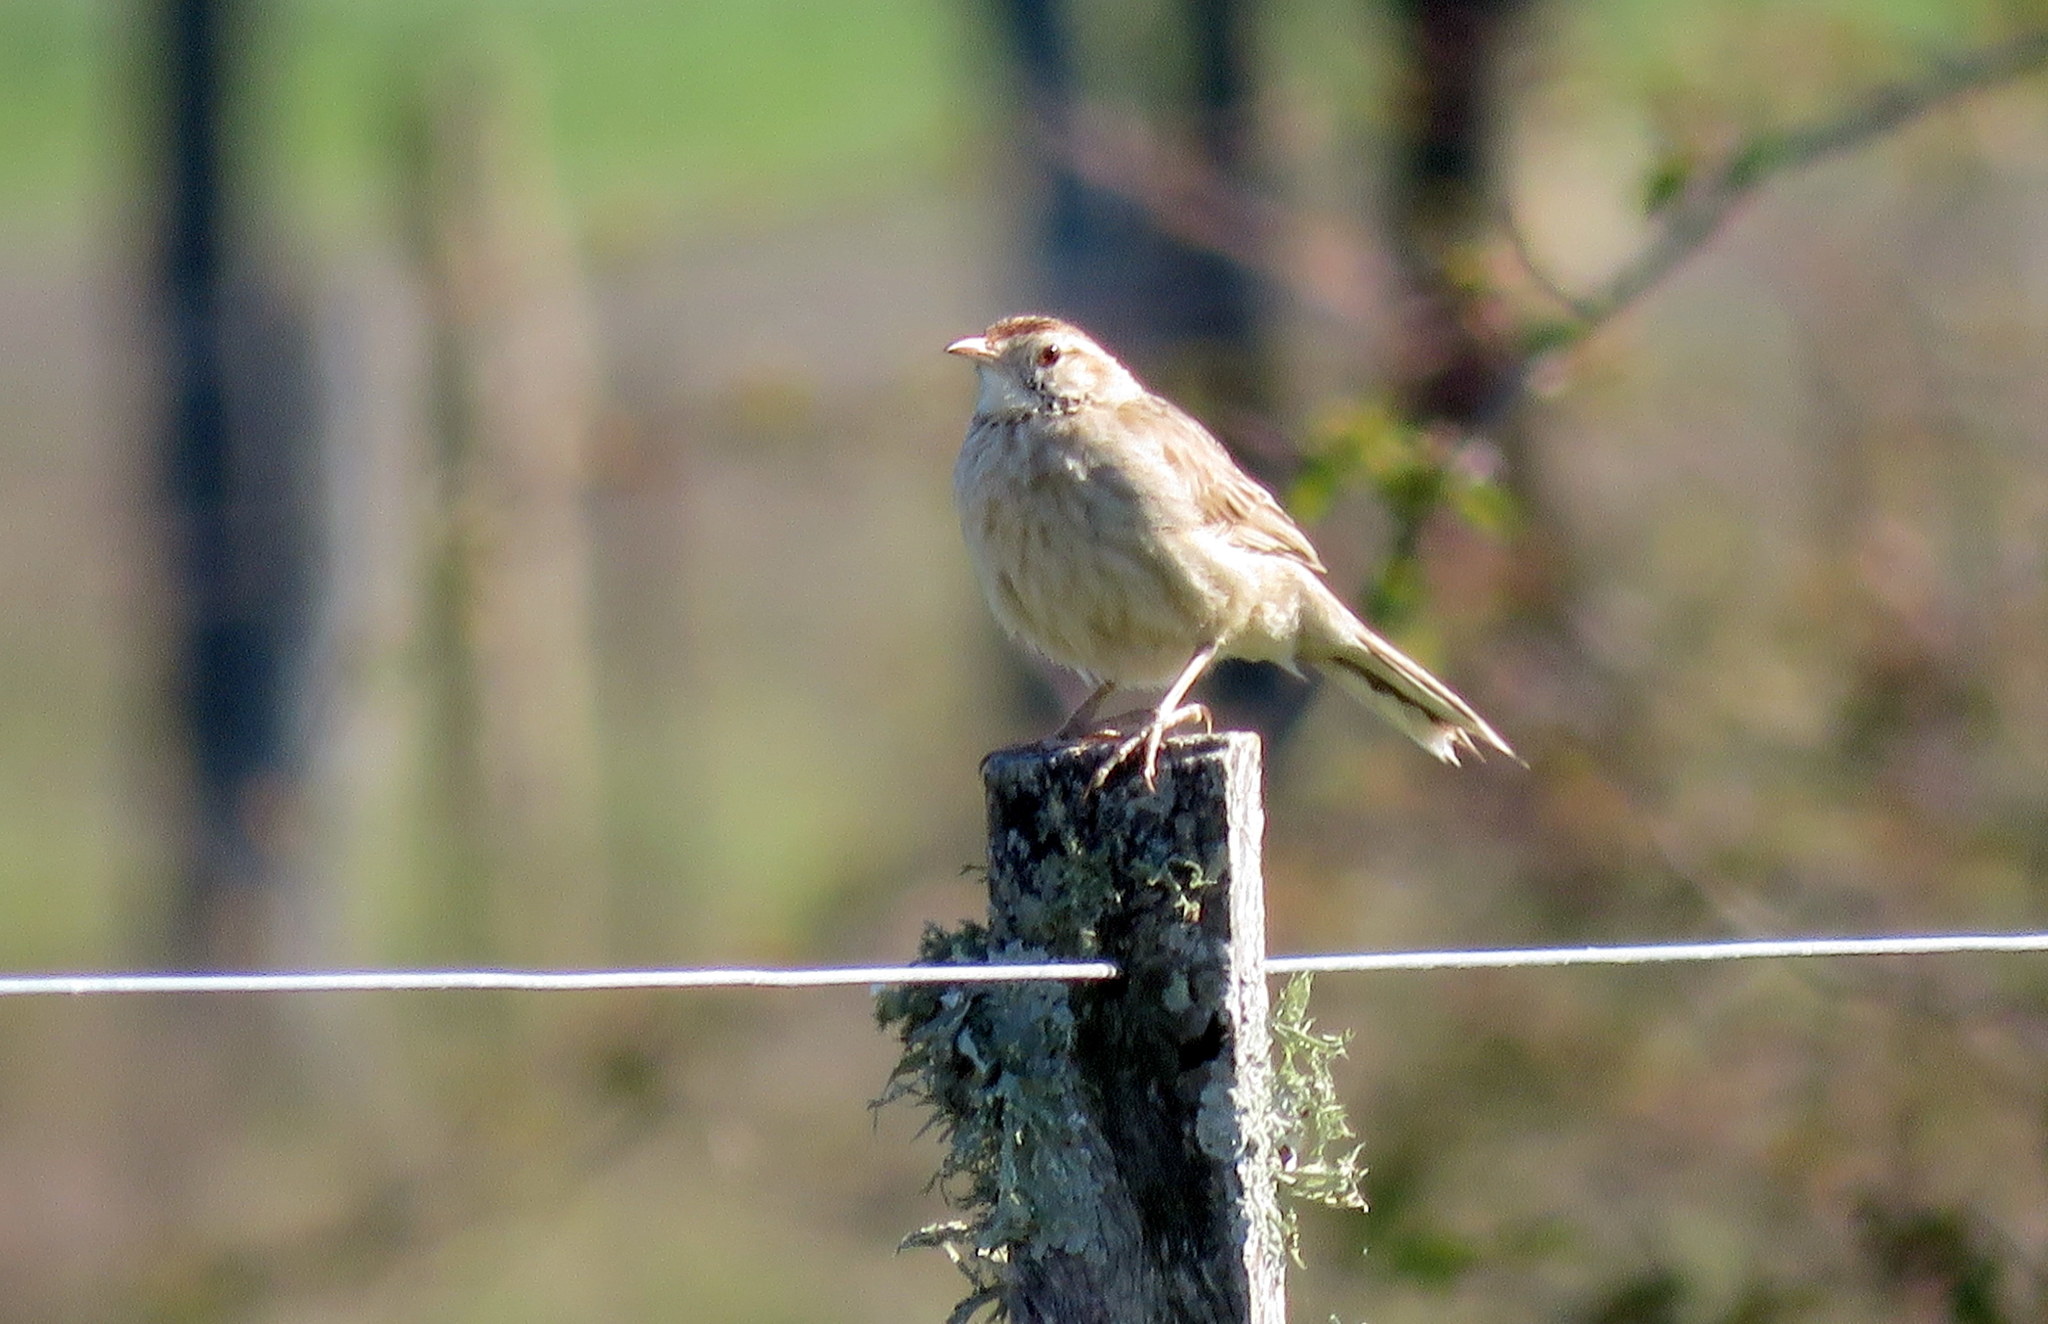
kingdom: Animalia
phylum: Chordata
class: Aves
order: Passeriformes
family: Furnariidae
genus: Anumbius
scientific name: Anumbius annumbi
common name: Firewood-gatherer
